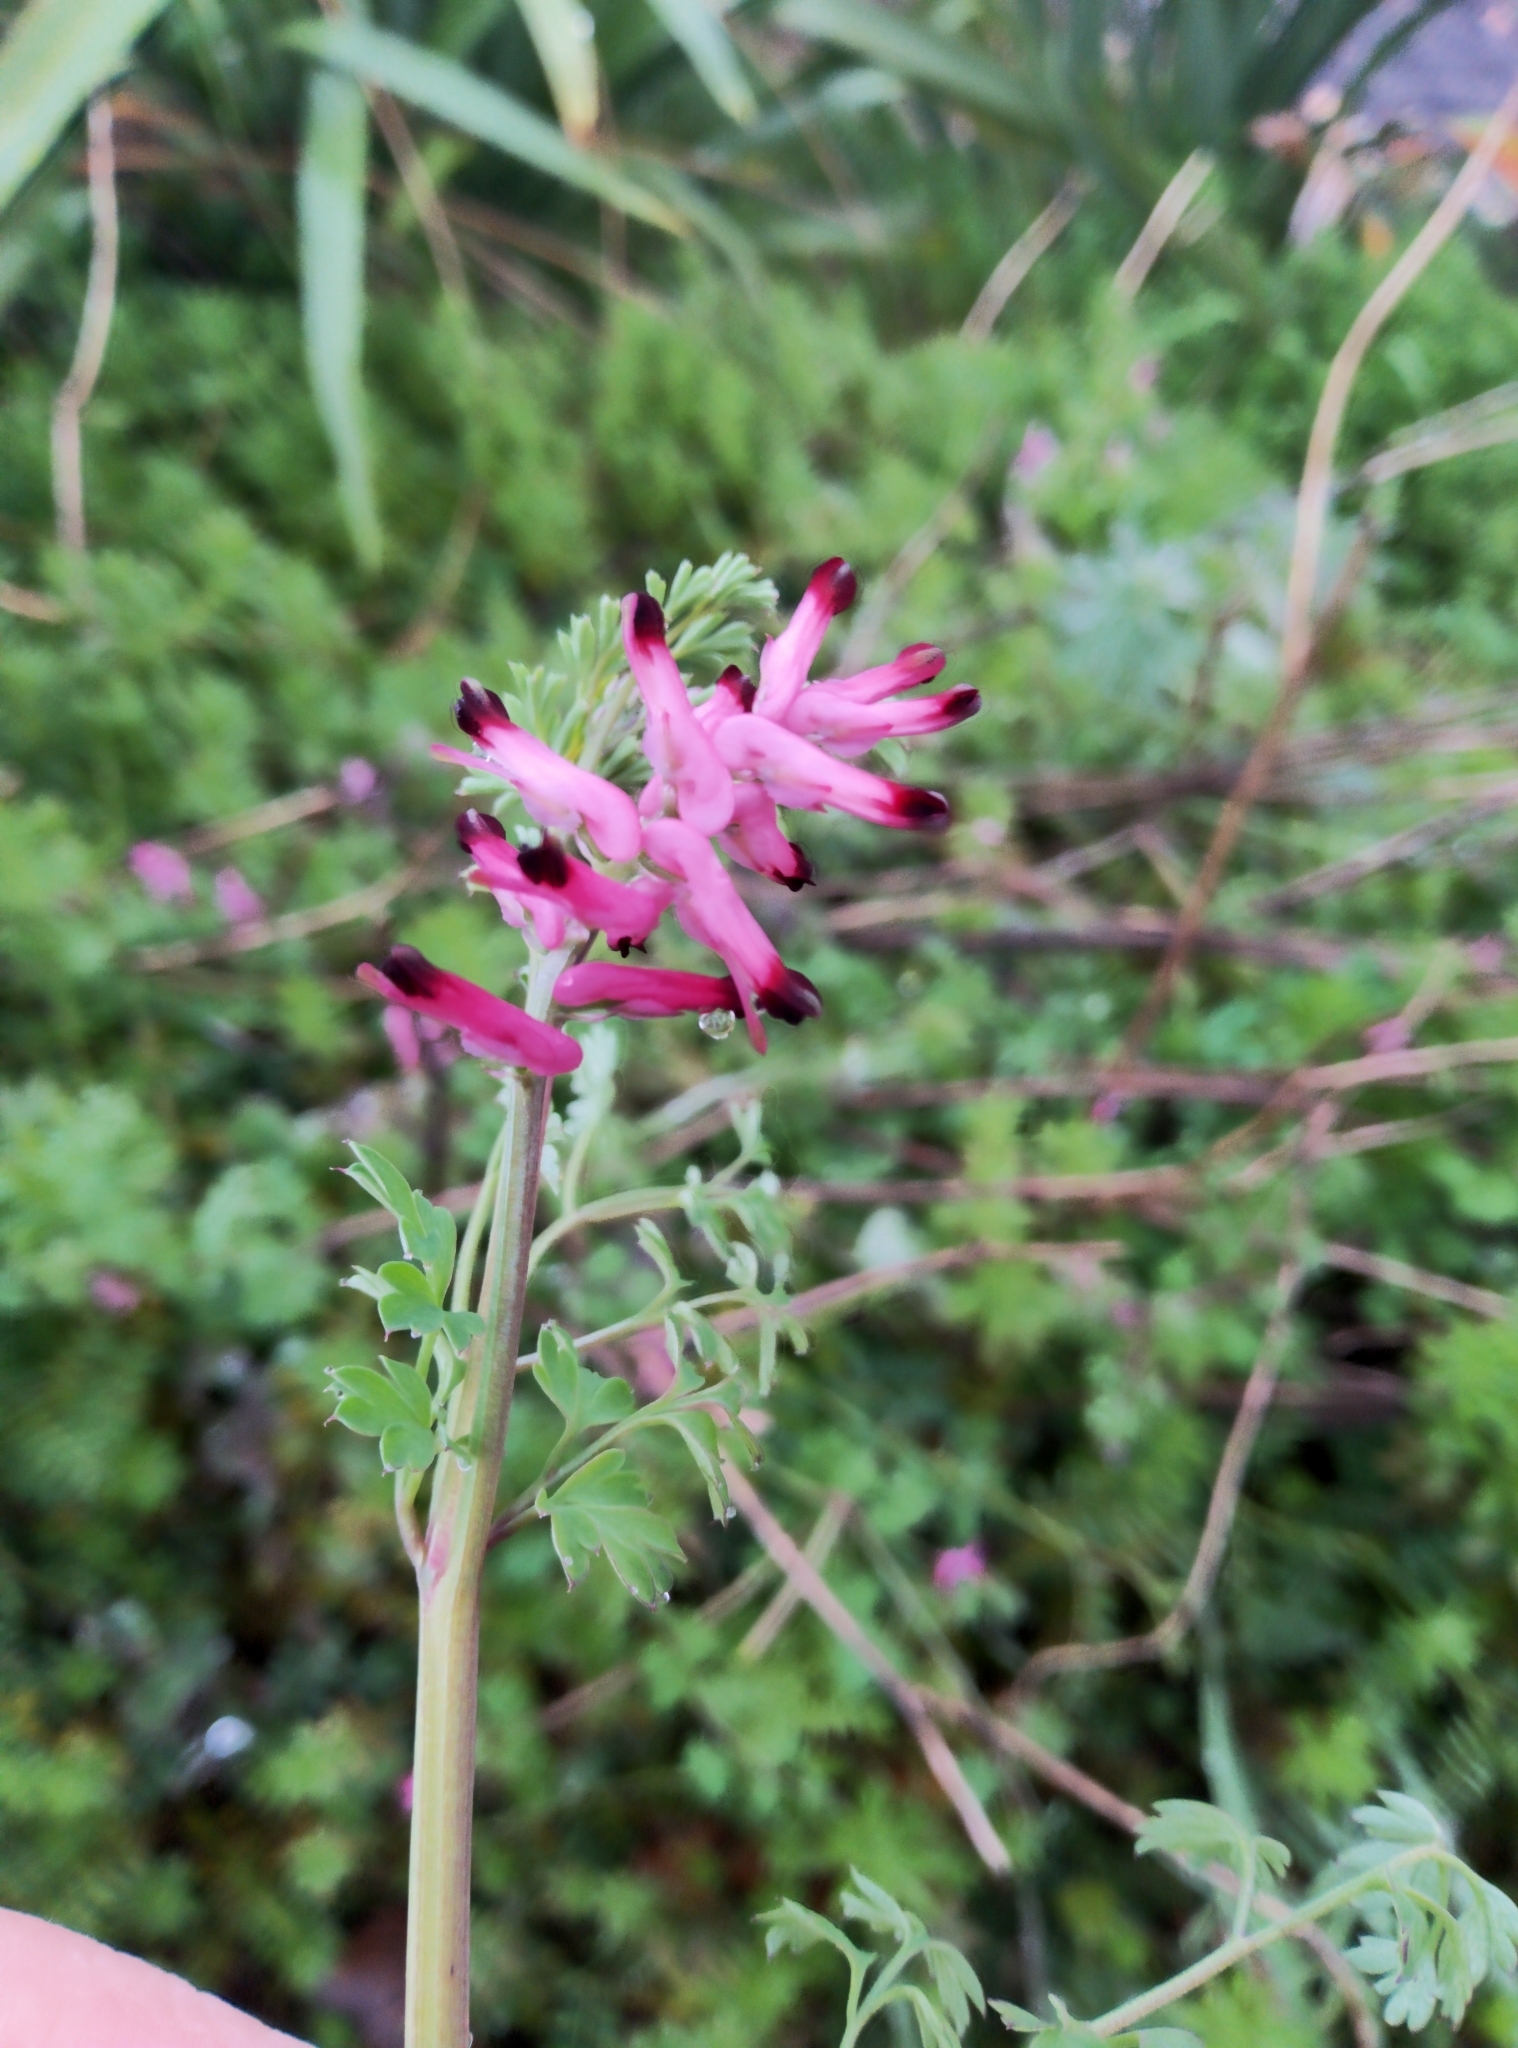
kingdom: Plantae
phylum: Tracheophyta
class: Magnoliopsida
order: Ranunculales
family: Papaveraceae
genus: Fumaria
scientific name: Fumaria muralis
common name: Common ramping-fumitory
